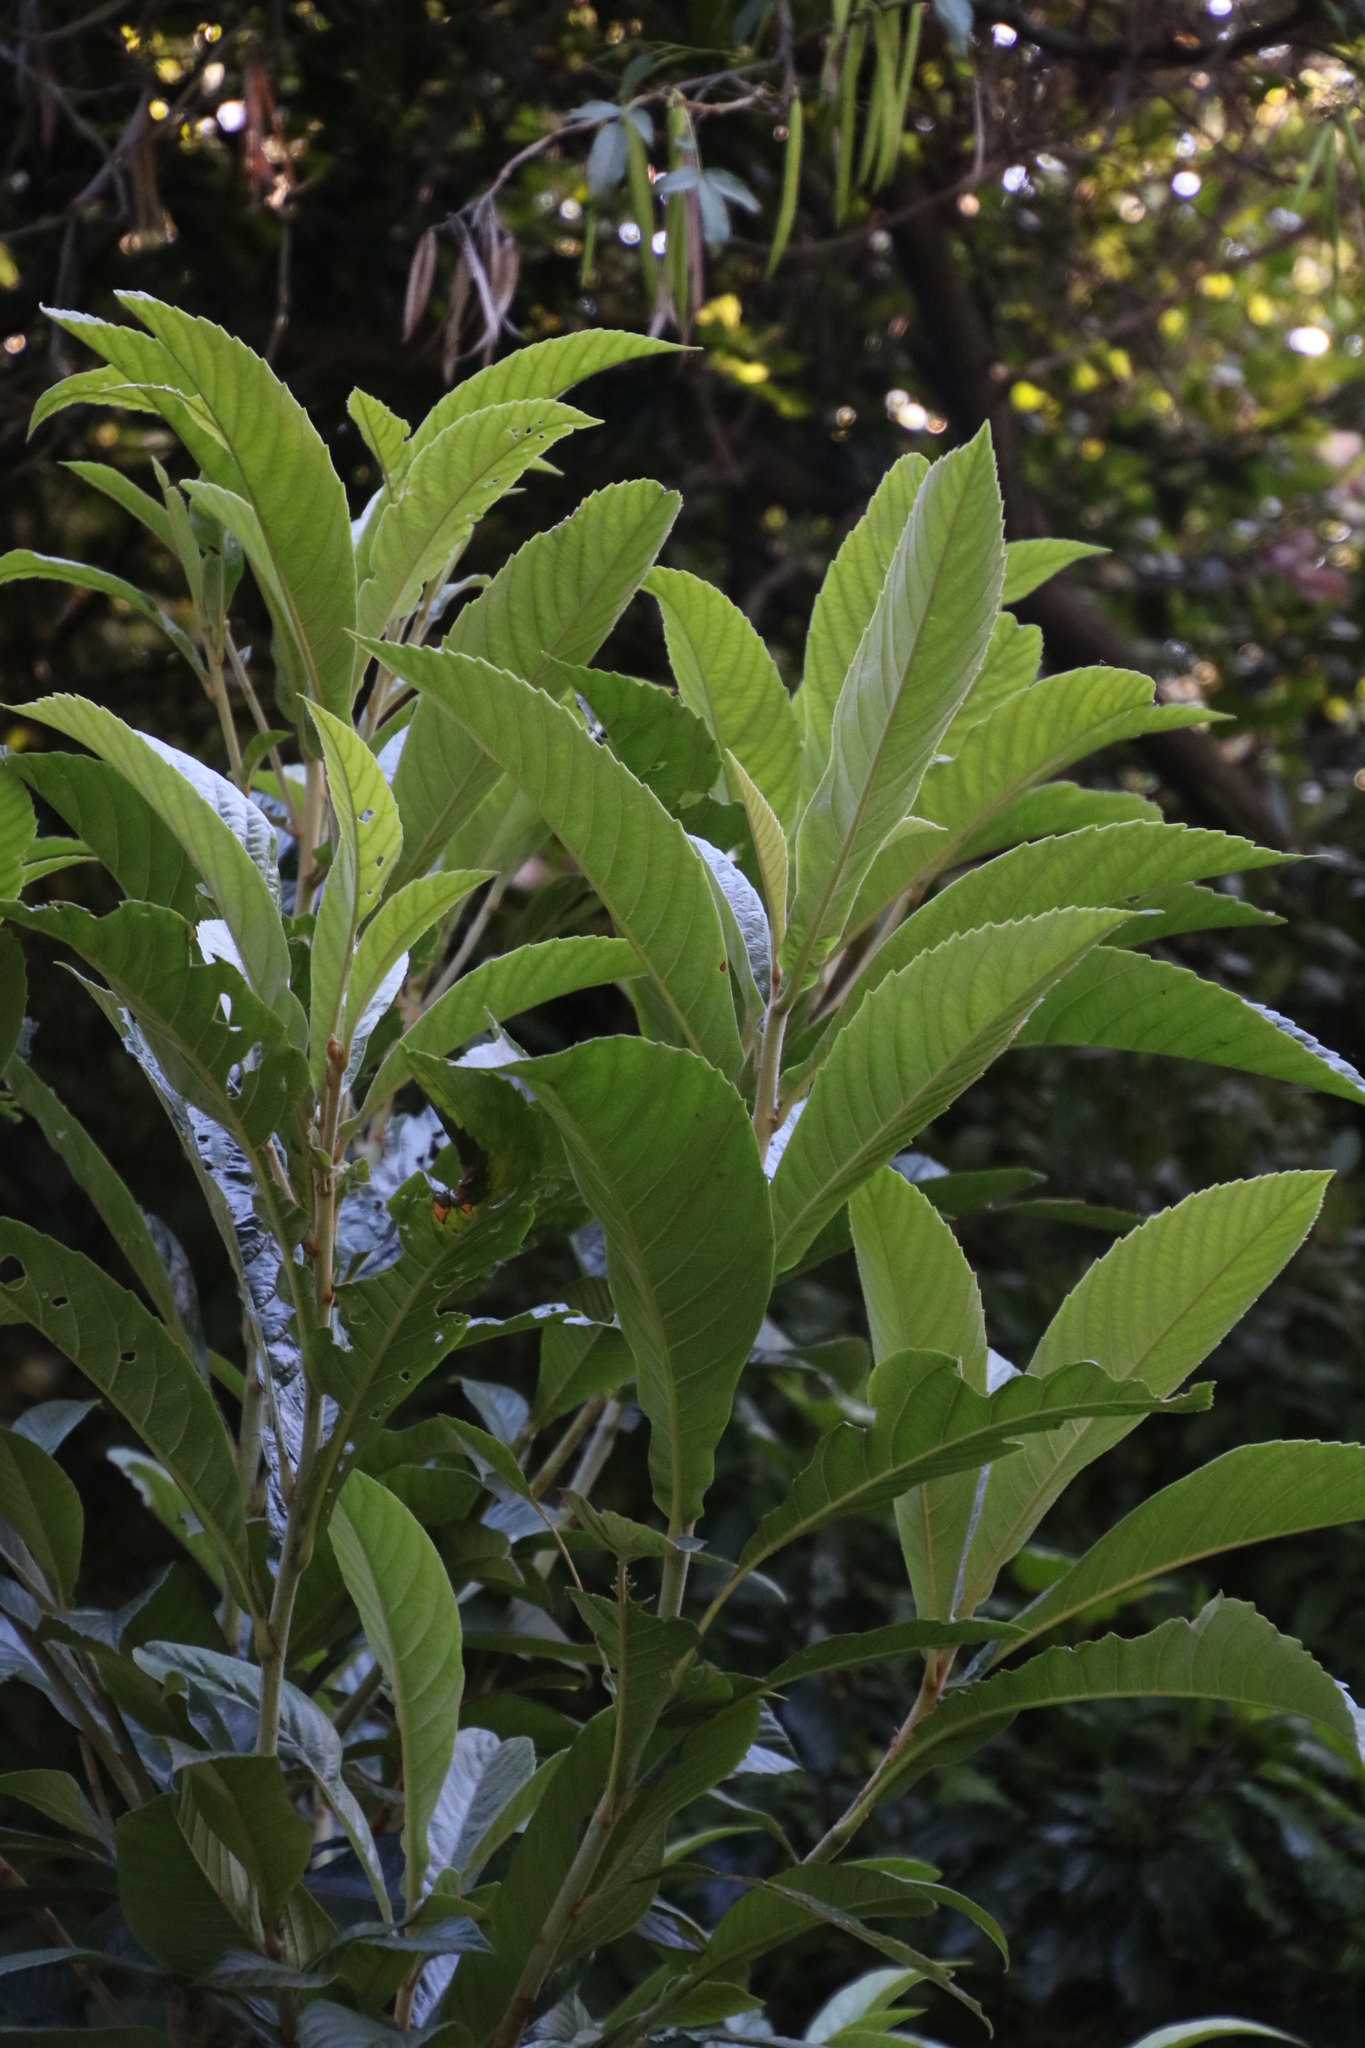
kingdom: Plantae
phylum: Tracheophyta
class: Magnoliopsida
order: Rosales
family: Rosaceae
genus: Rhaphiolepis
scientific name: Rhaphiolepis bibas
